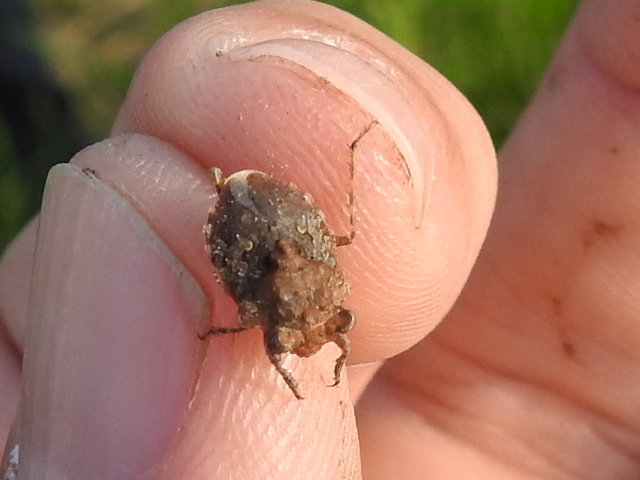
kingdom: Animalia
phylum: Arthropoda
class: Insecta
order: Hemiptera
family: Gelastocoridae
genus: Gelastocoris
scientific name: Gelastocoris oculatus
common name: Toad bug
